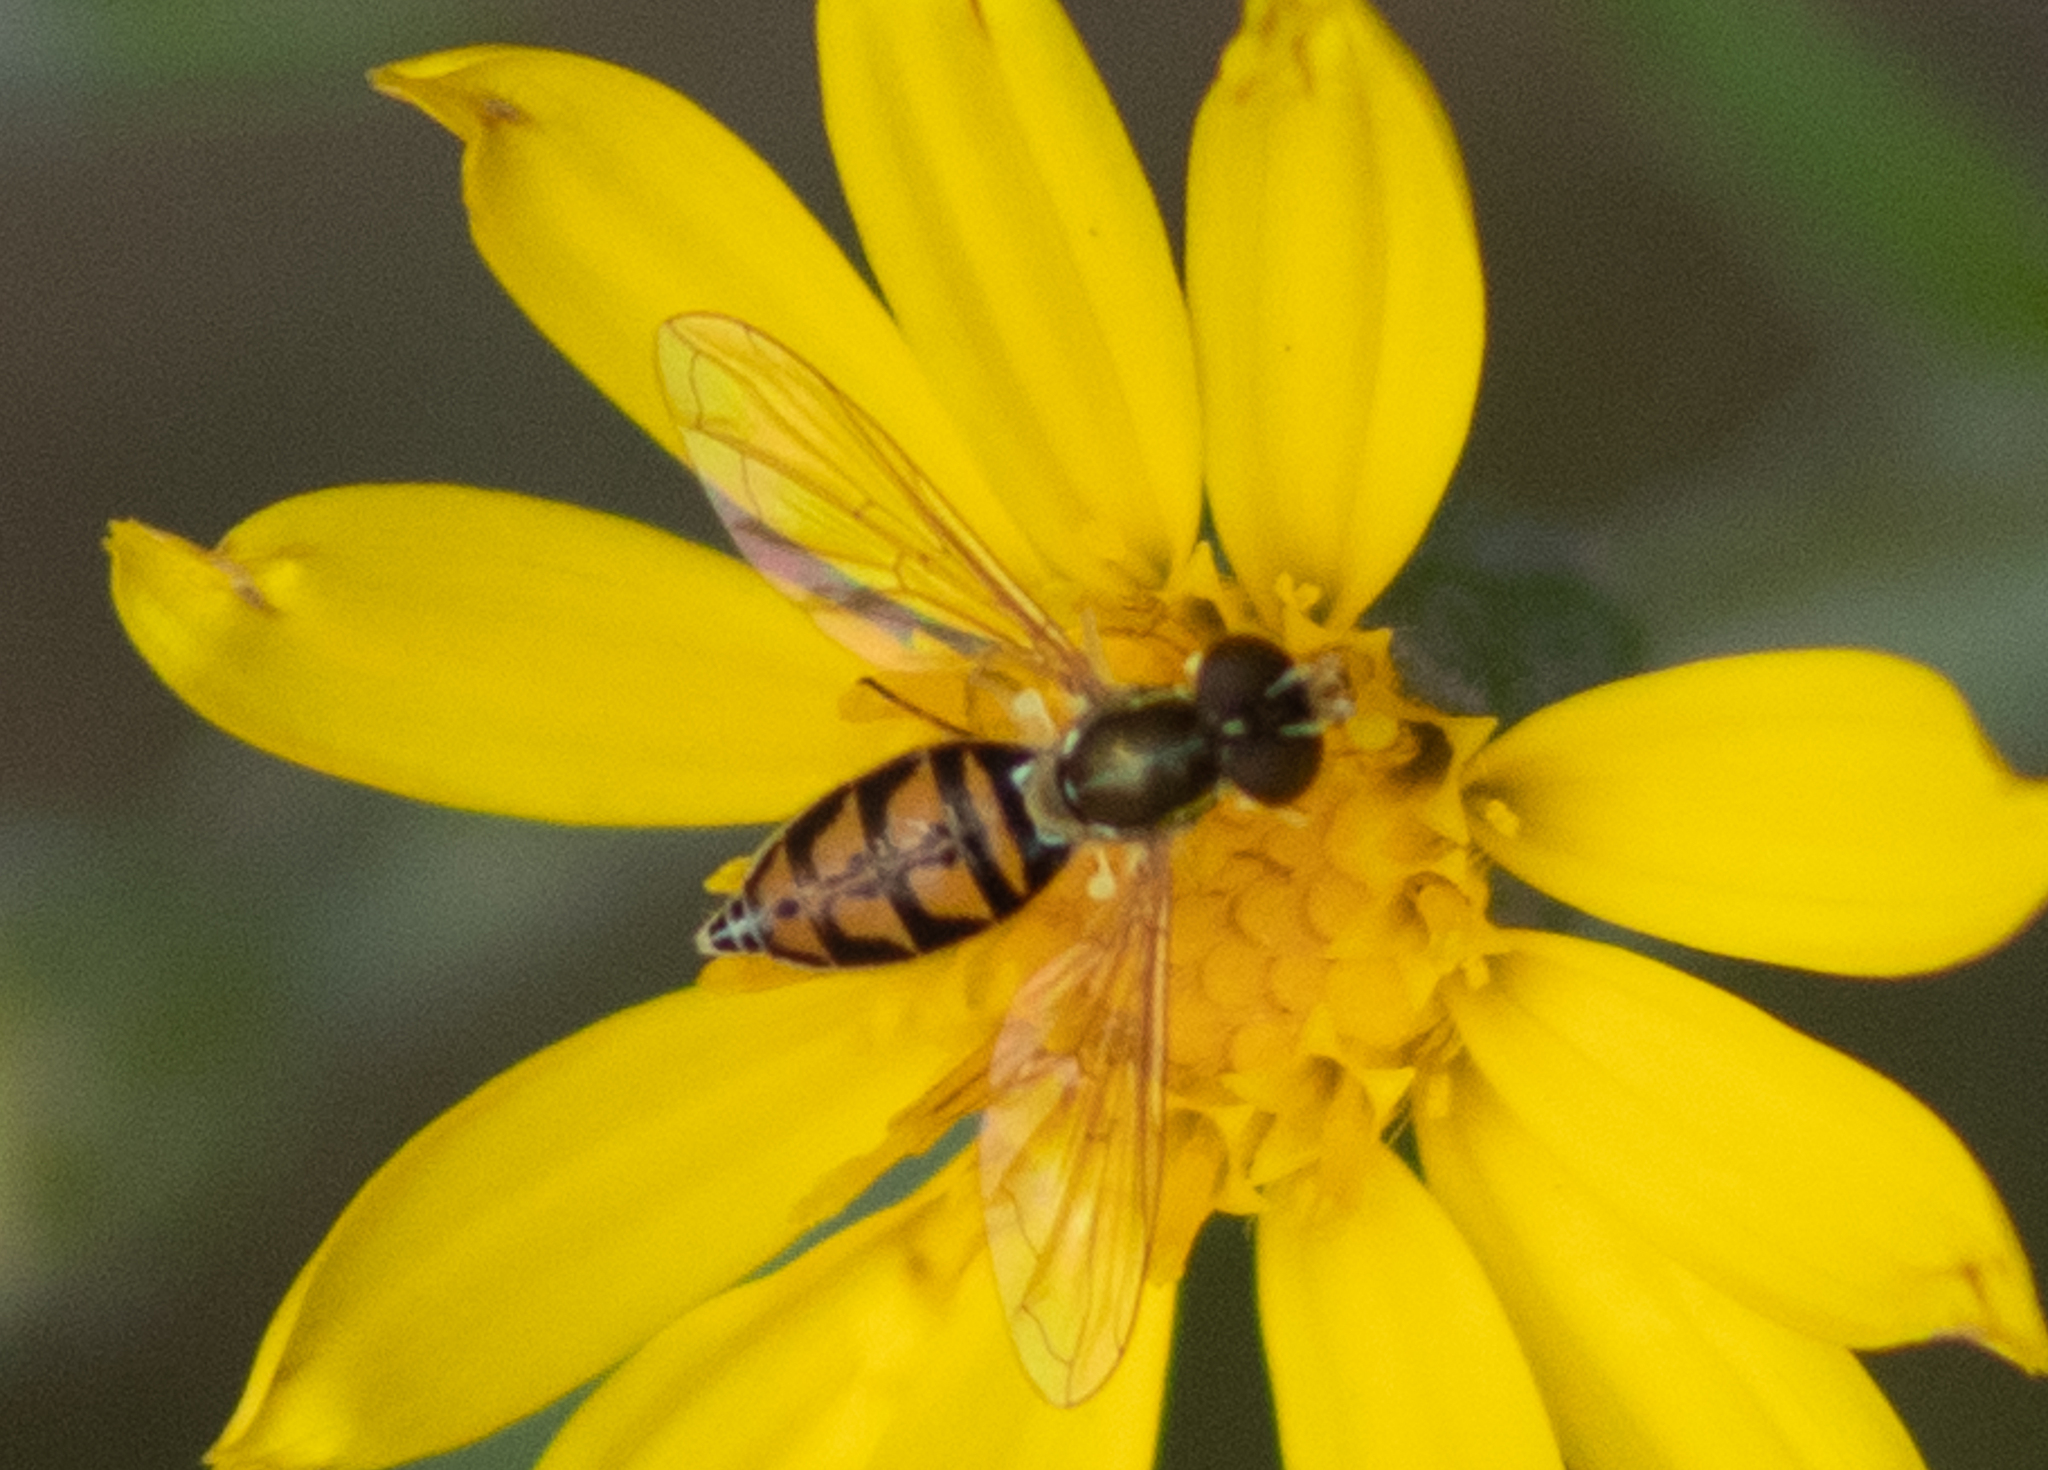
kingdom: Animalia
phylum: Arthropoda
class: Insecta
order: Diptera
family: Syrphidae
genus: Toxomerus
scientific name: Toxomerus marginatus
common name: Syrphid fly
